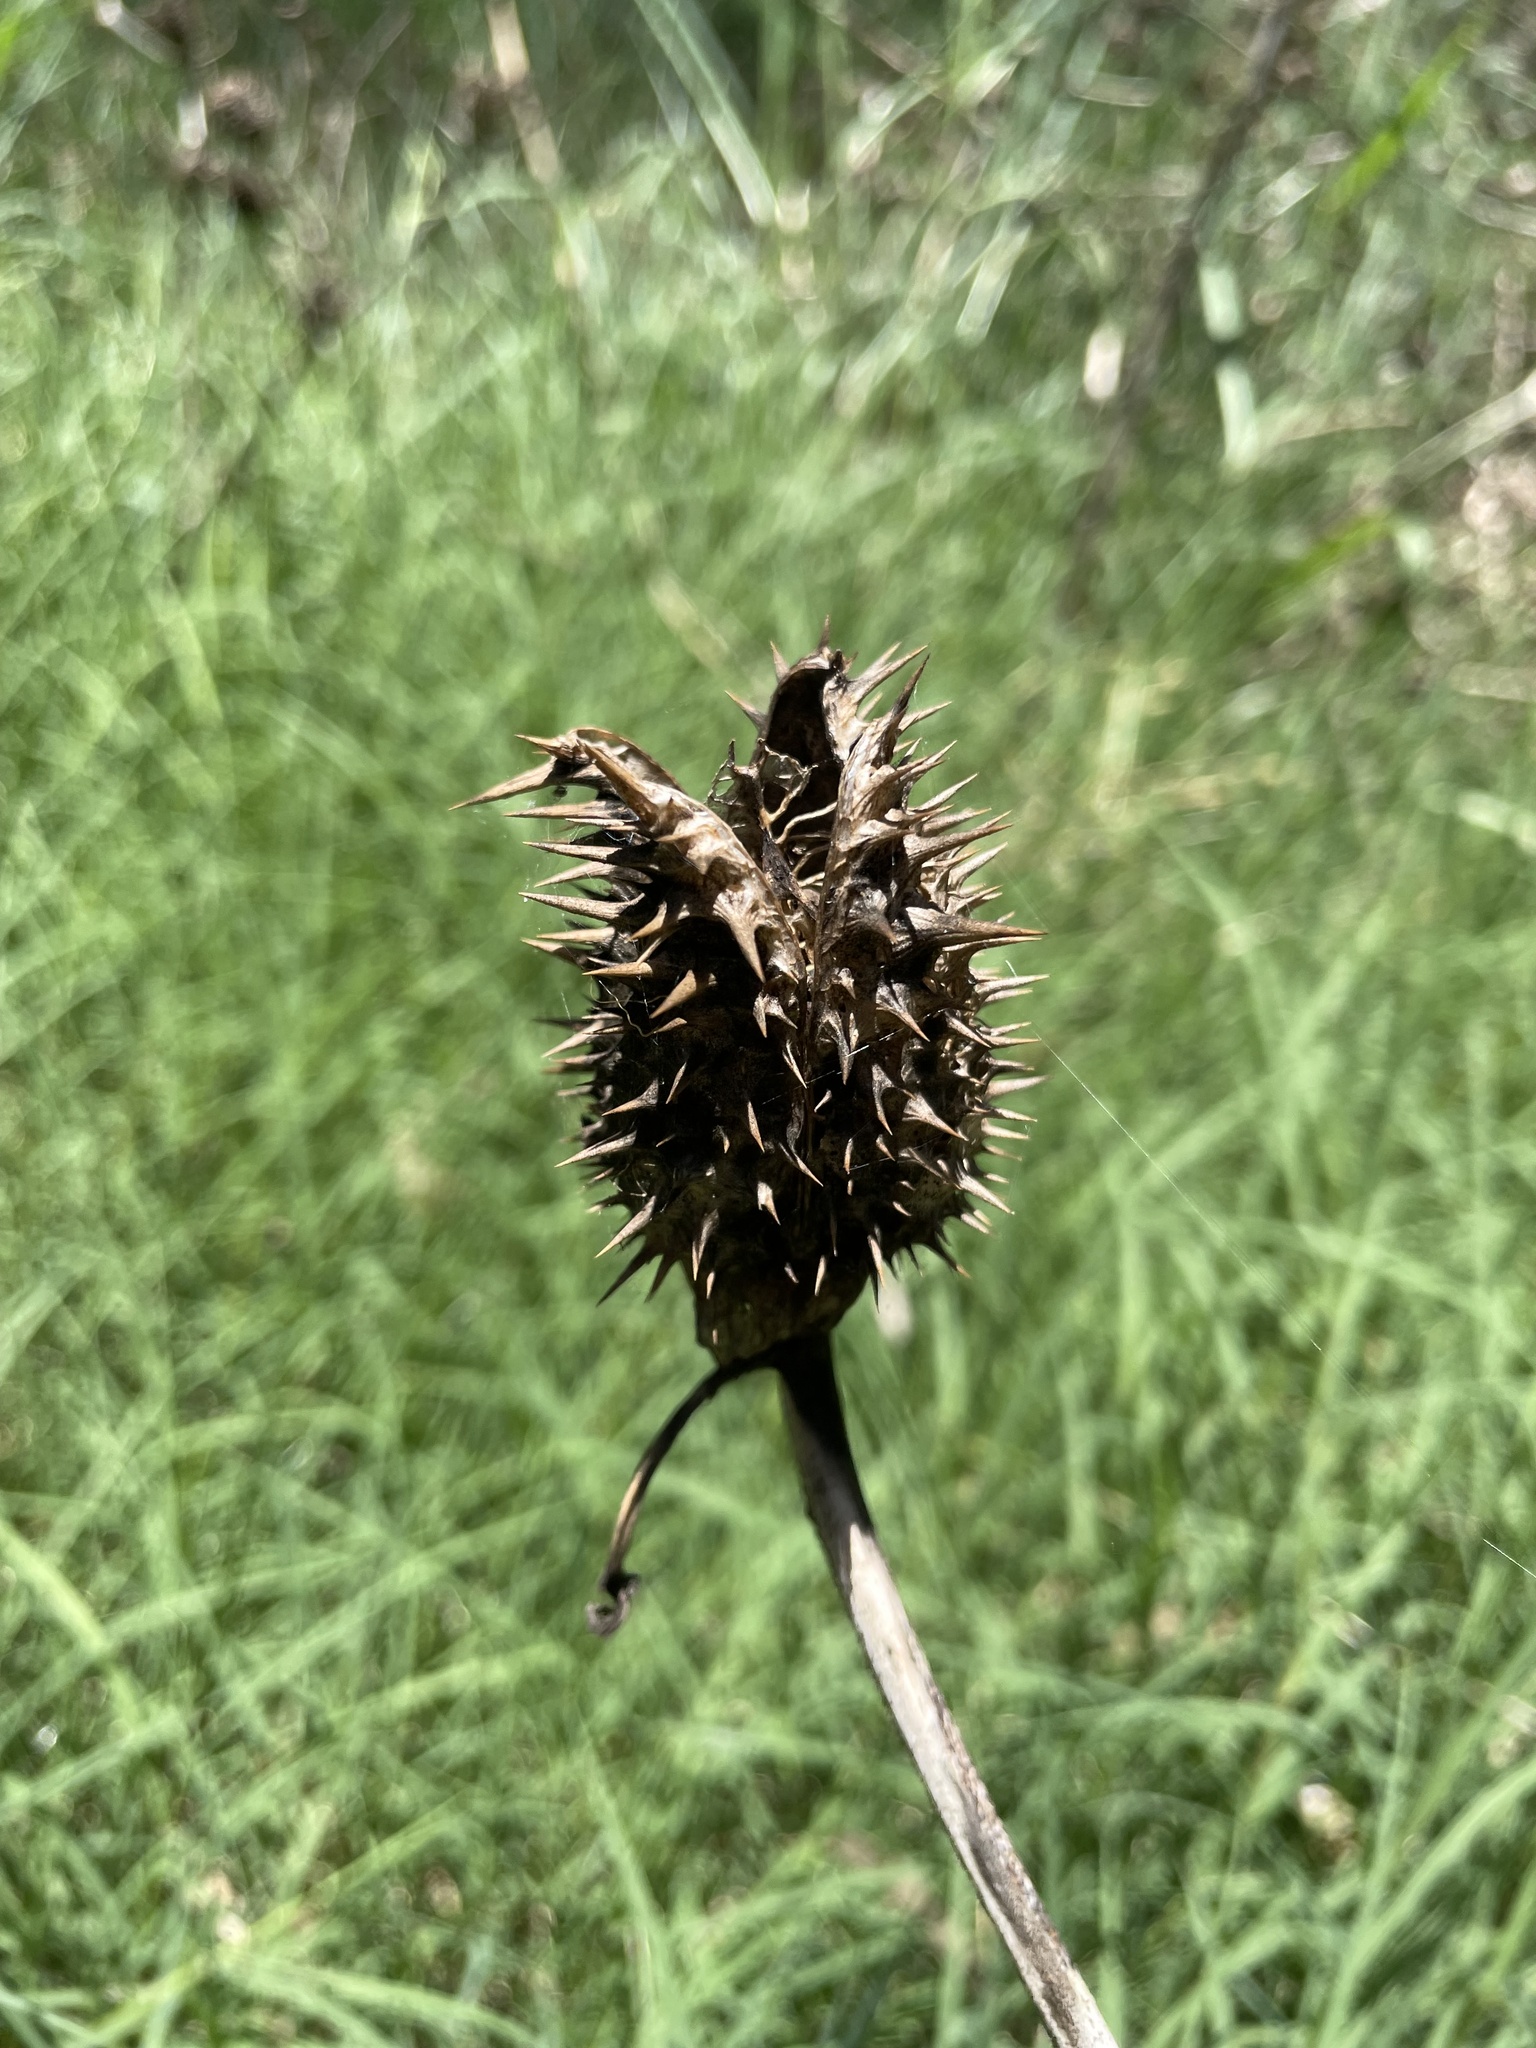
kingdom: Plantae
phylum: Tracheophyta
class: Magnoliopsida
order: Solanales
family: Solanaceae
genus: Datura
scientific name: Datura stramonium
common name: Thorn-apple
